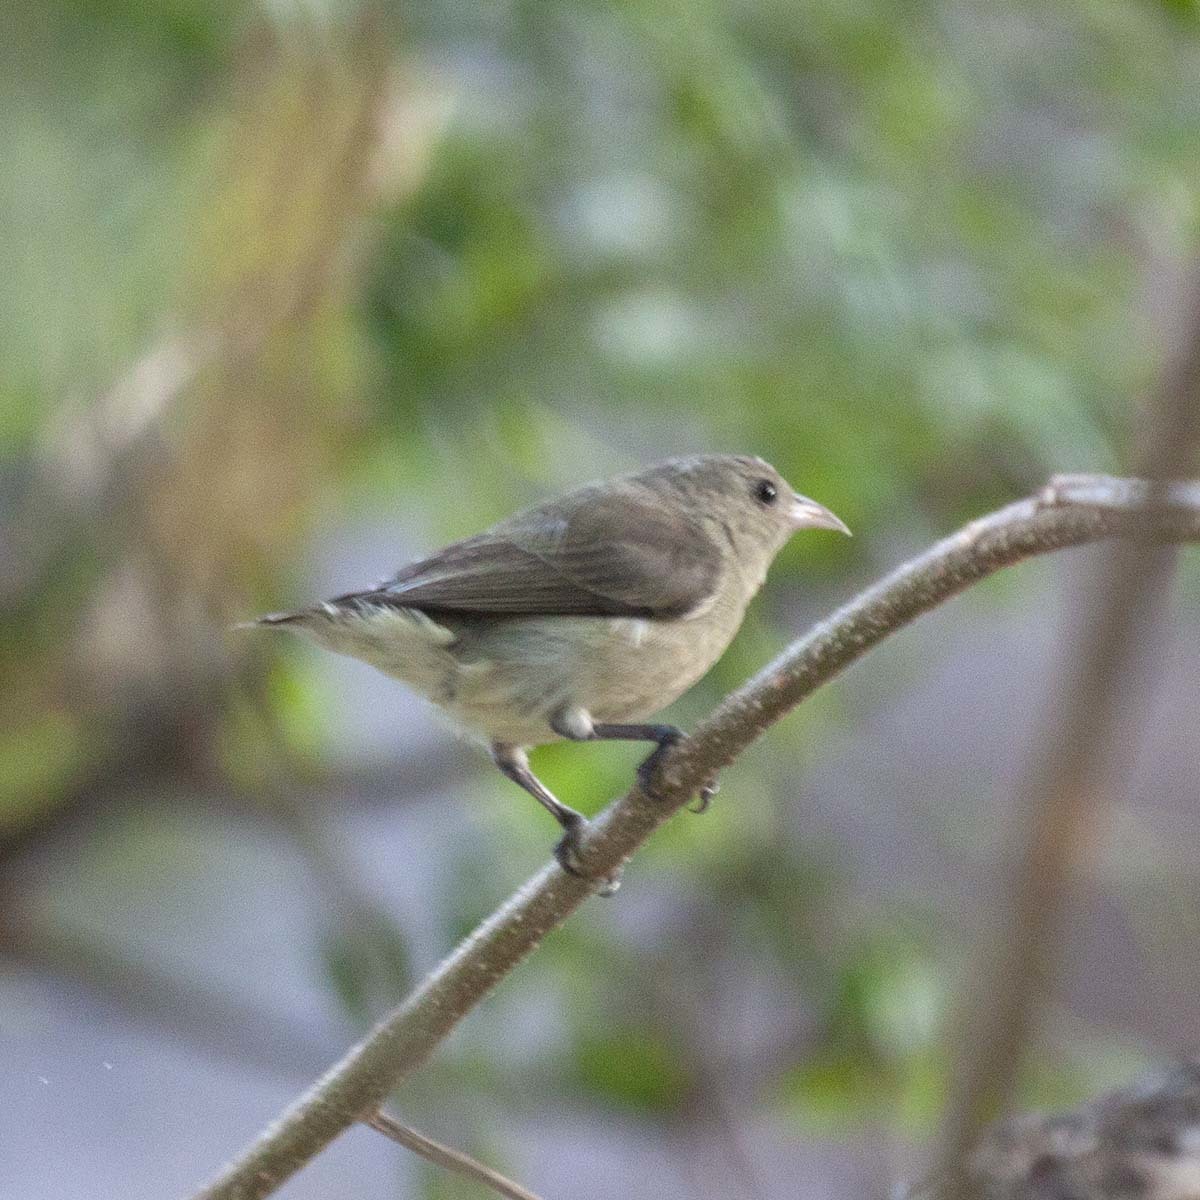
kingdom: Animalia
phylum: Chordata
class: Aves
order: Passeriformes
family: Dicaeidae
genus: Dicaeum
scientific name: Dicaeum erythrorhynchos
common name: Pale-billed flowerpecker
